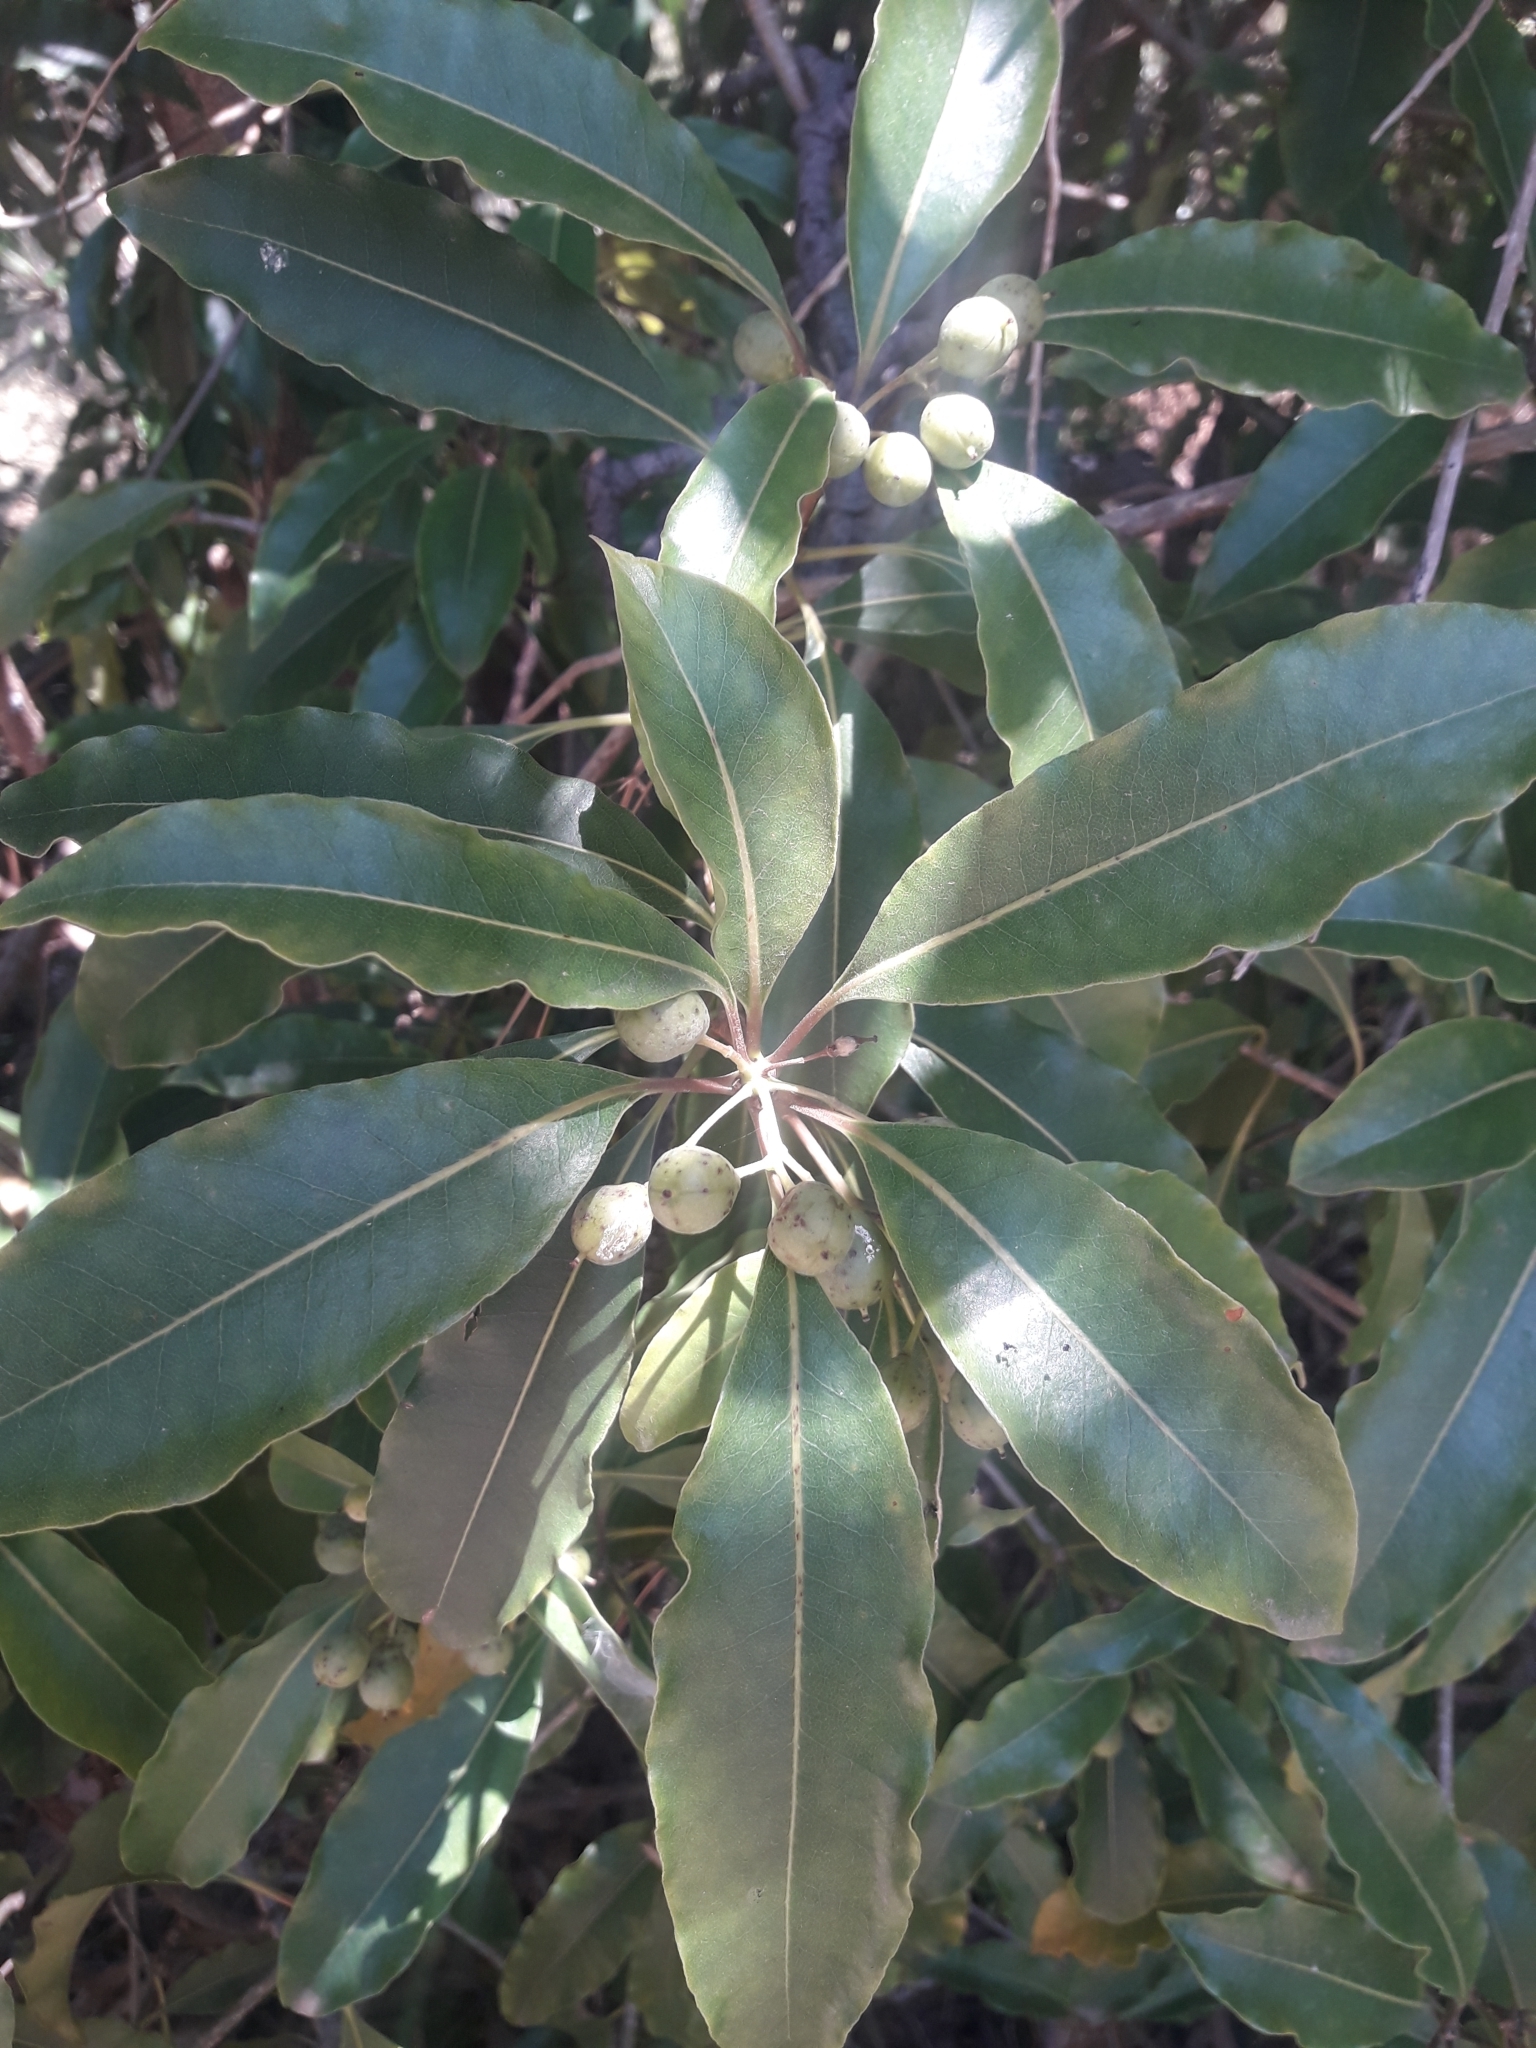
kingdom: Plantae
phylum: Tracheophyta
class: Magnoliopsida
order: Apiales
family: Pittosporaceae
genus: Pittosporum
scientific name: Pittosporum undulatum
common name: Australian cheesewood
